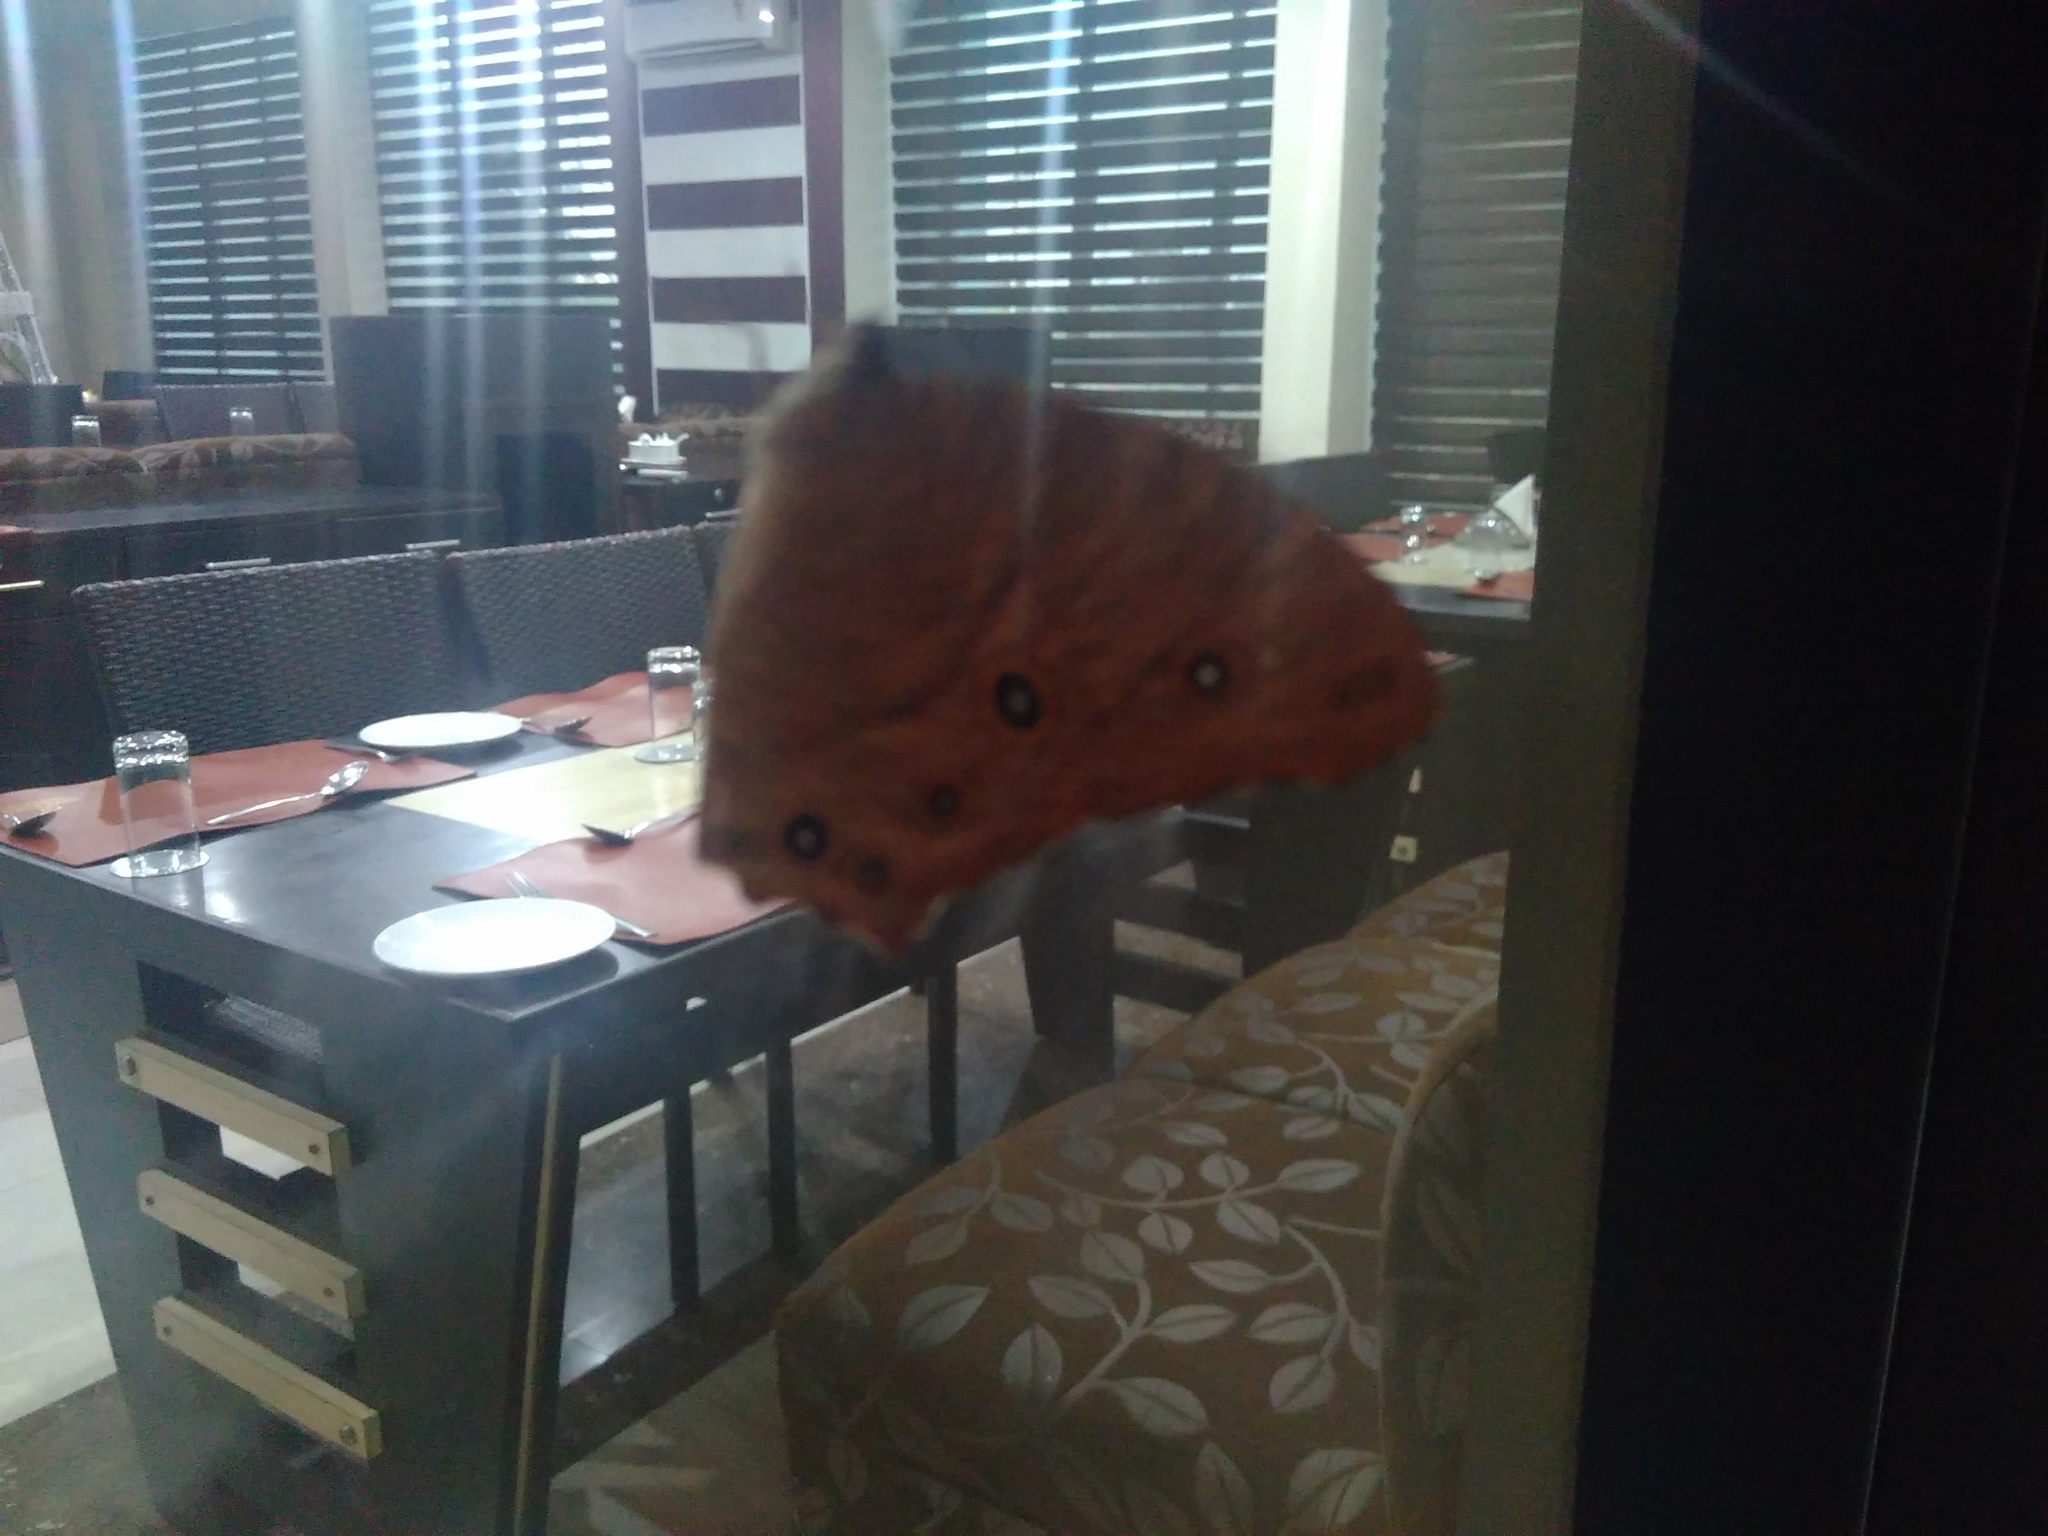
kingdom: Animalia
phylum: Arthropoda
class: Insecta
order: Lepidoptera
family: Nymphalidae
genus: Melanitis
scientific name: Melanitis leda
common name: Twilight brown
